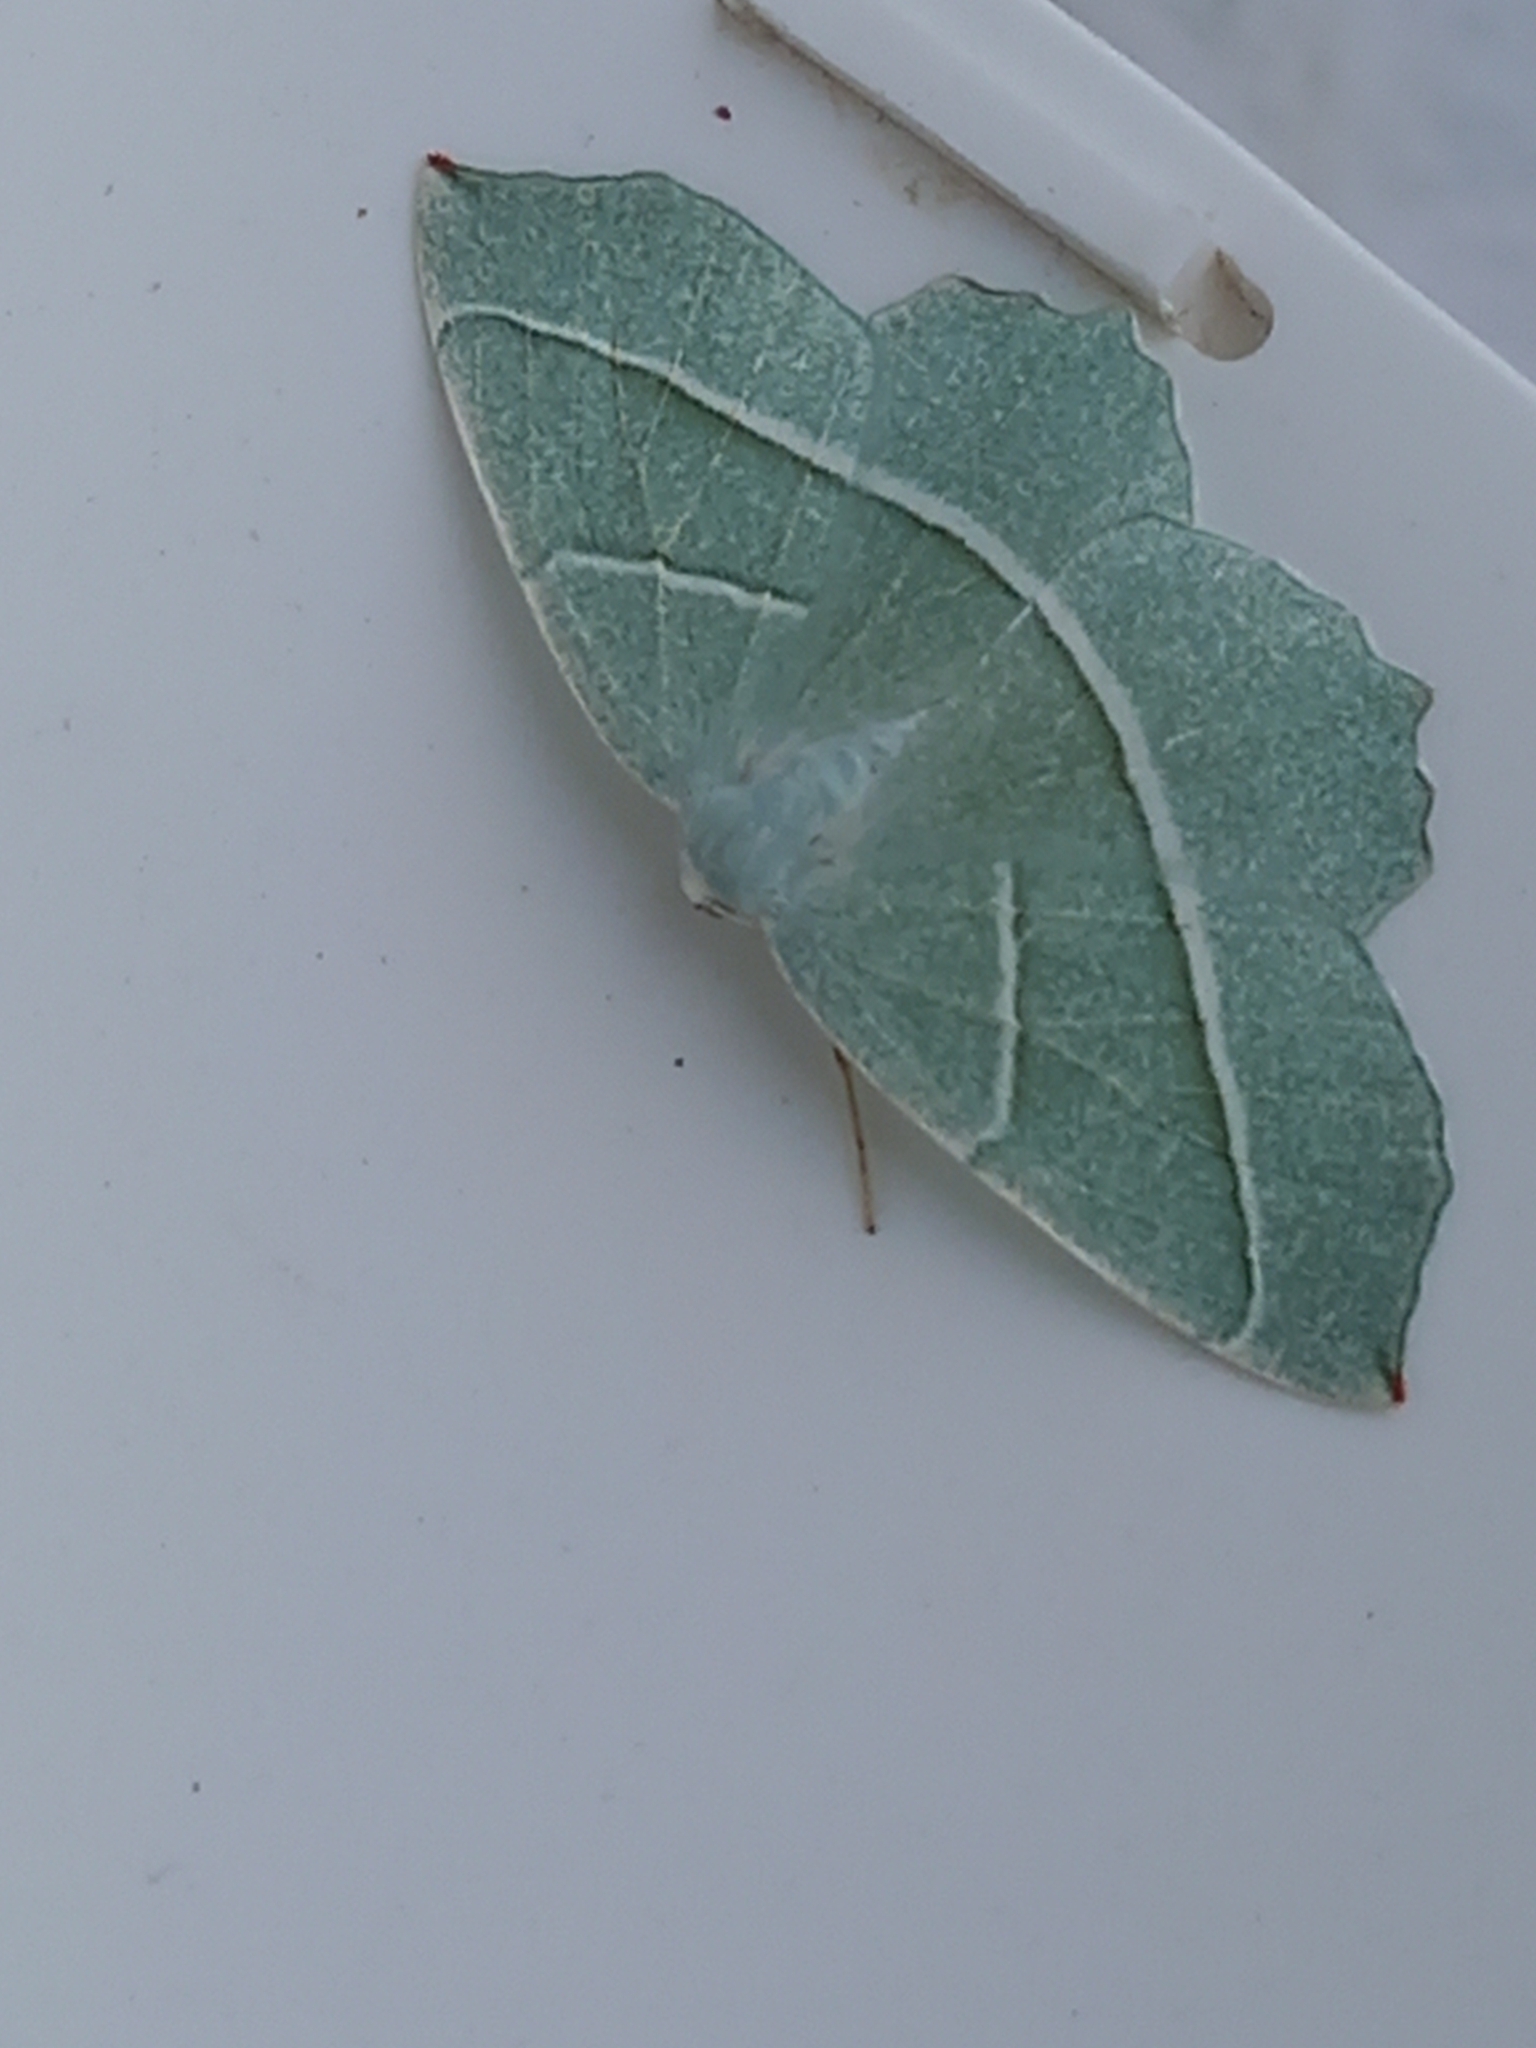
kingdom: Animalia
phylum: Arthropoda
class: Insecta
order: Lepidoptera
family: Geometridae
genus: Campaea
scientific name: Campaea margaritaria
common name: Light emerald
